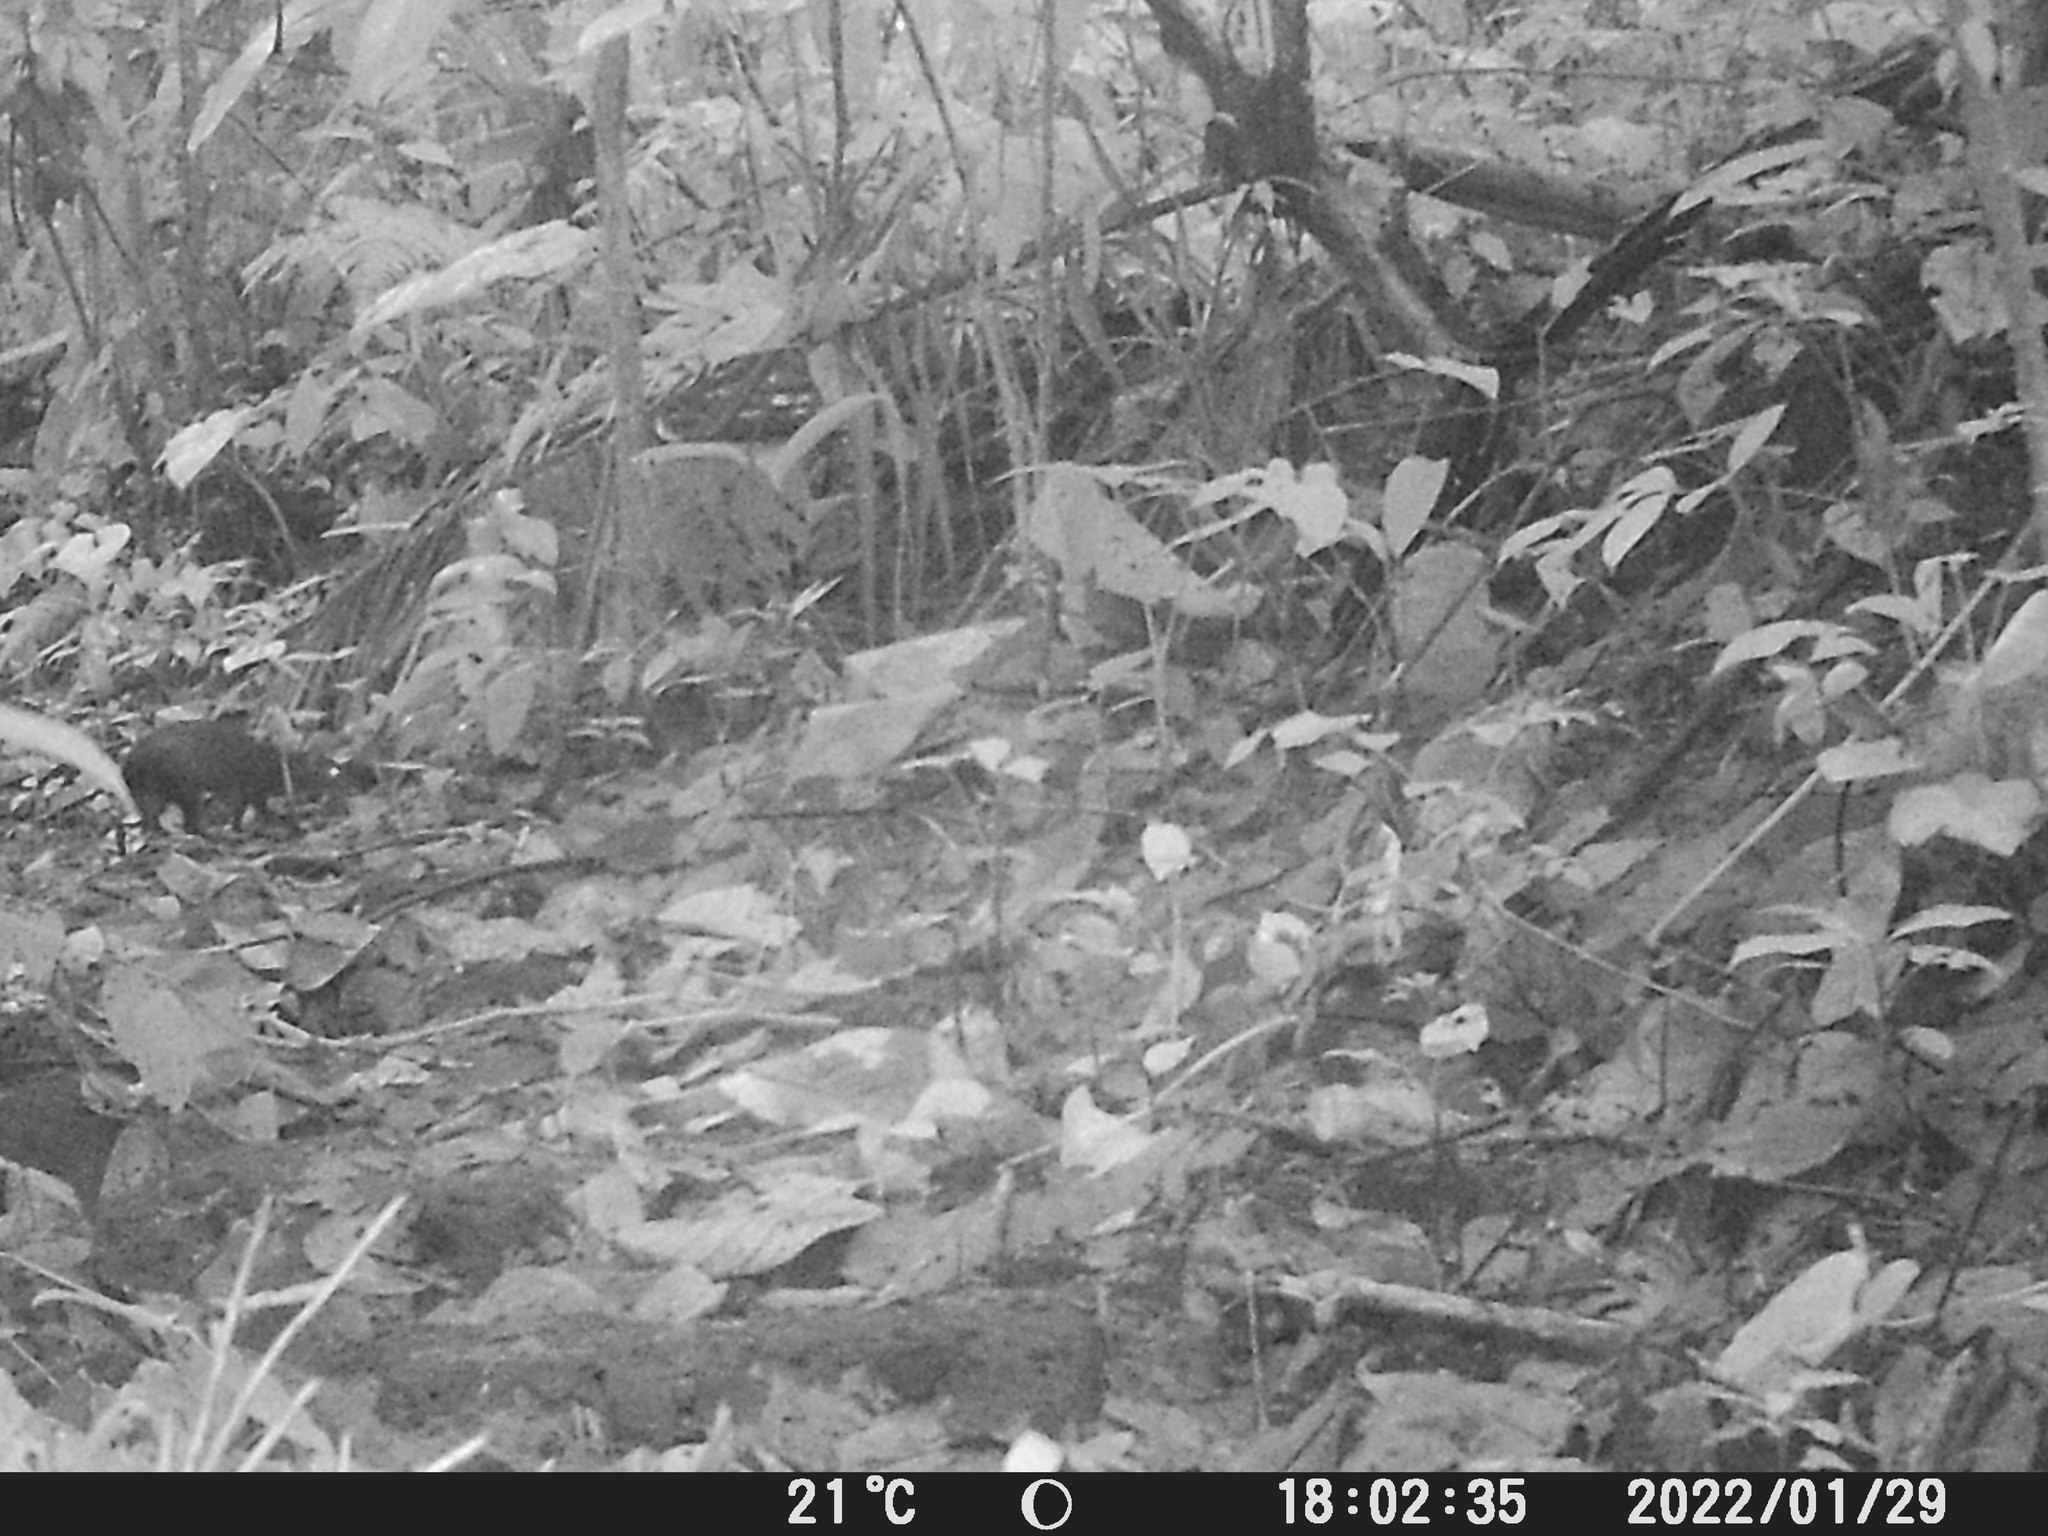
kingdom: Animalia
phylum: Chordata
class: Mammalia
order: Rodentia
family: Dasyproctidae
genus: Dasyprocta
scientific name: Dasyprocta punctata
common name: Central american agouti
